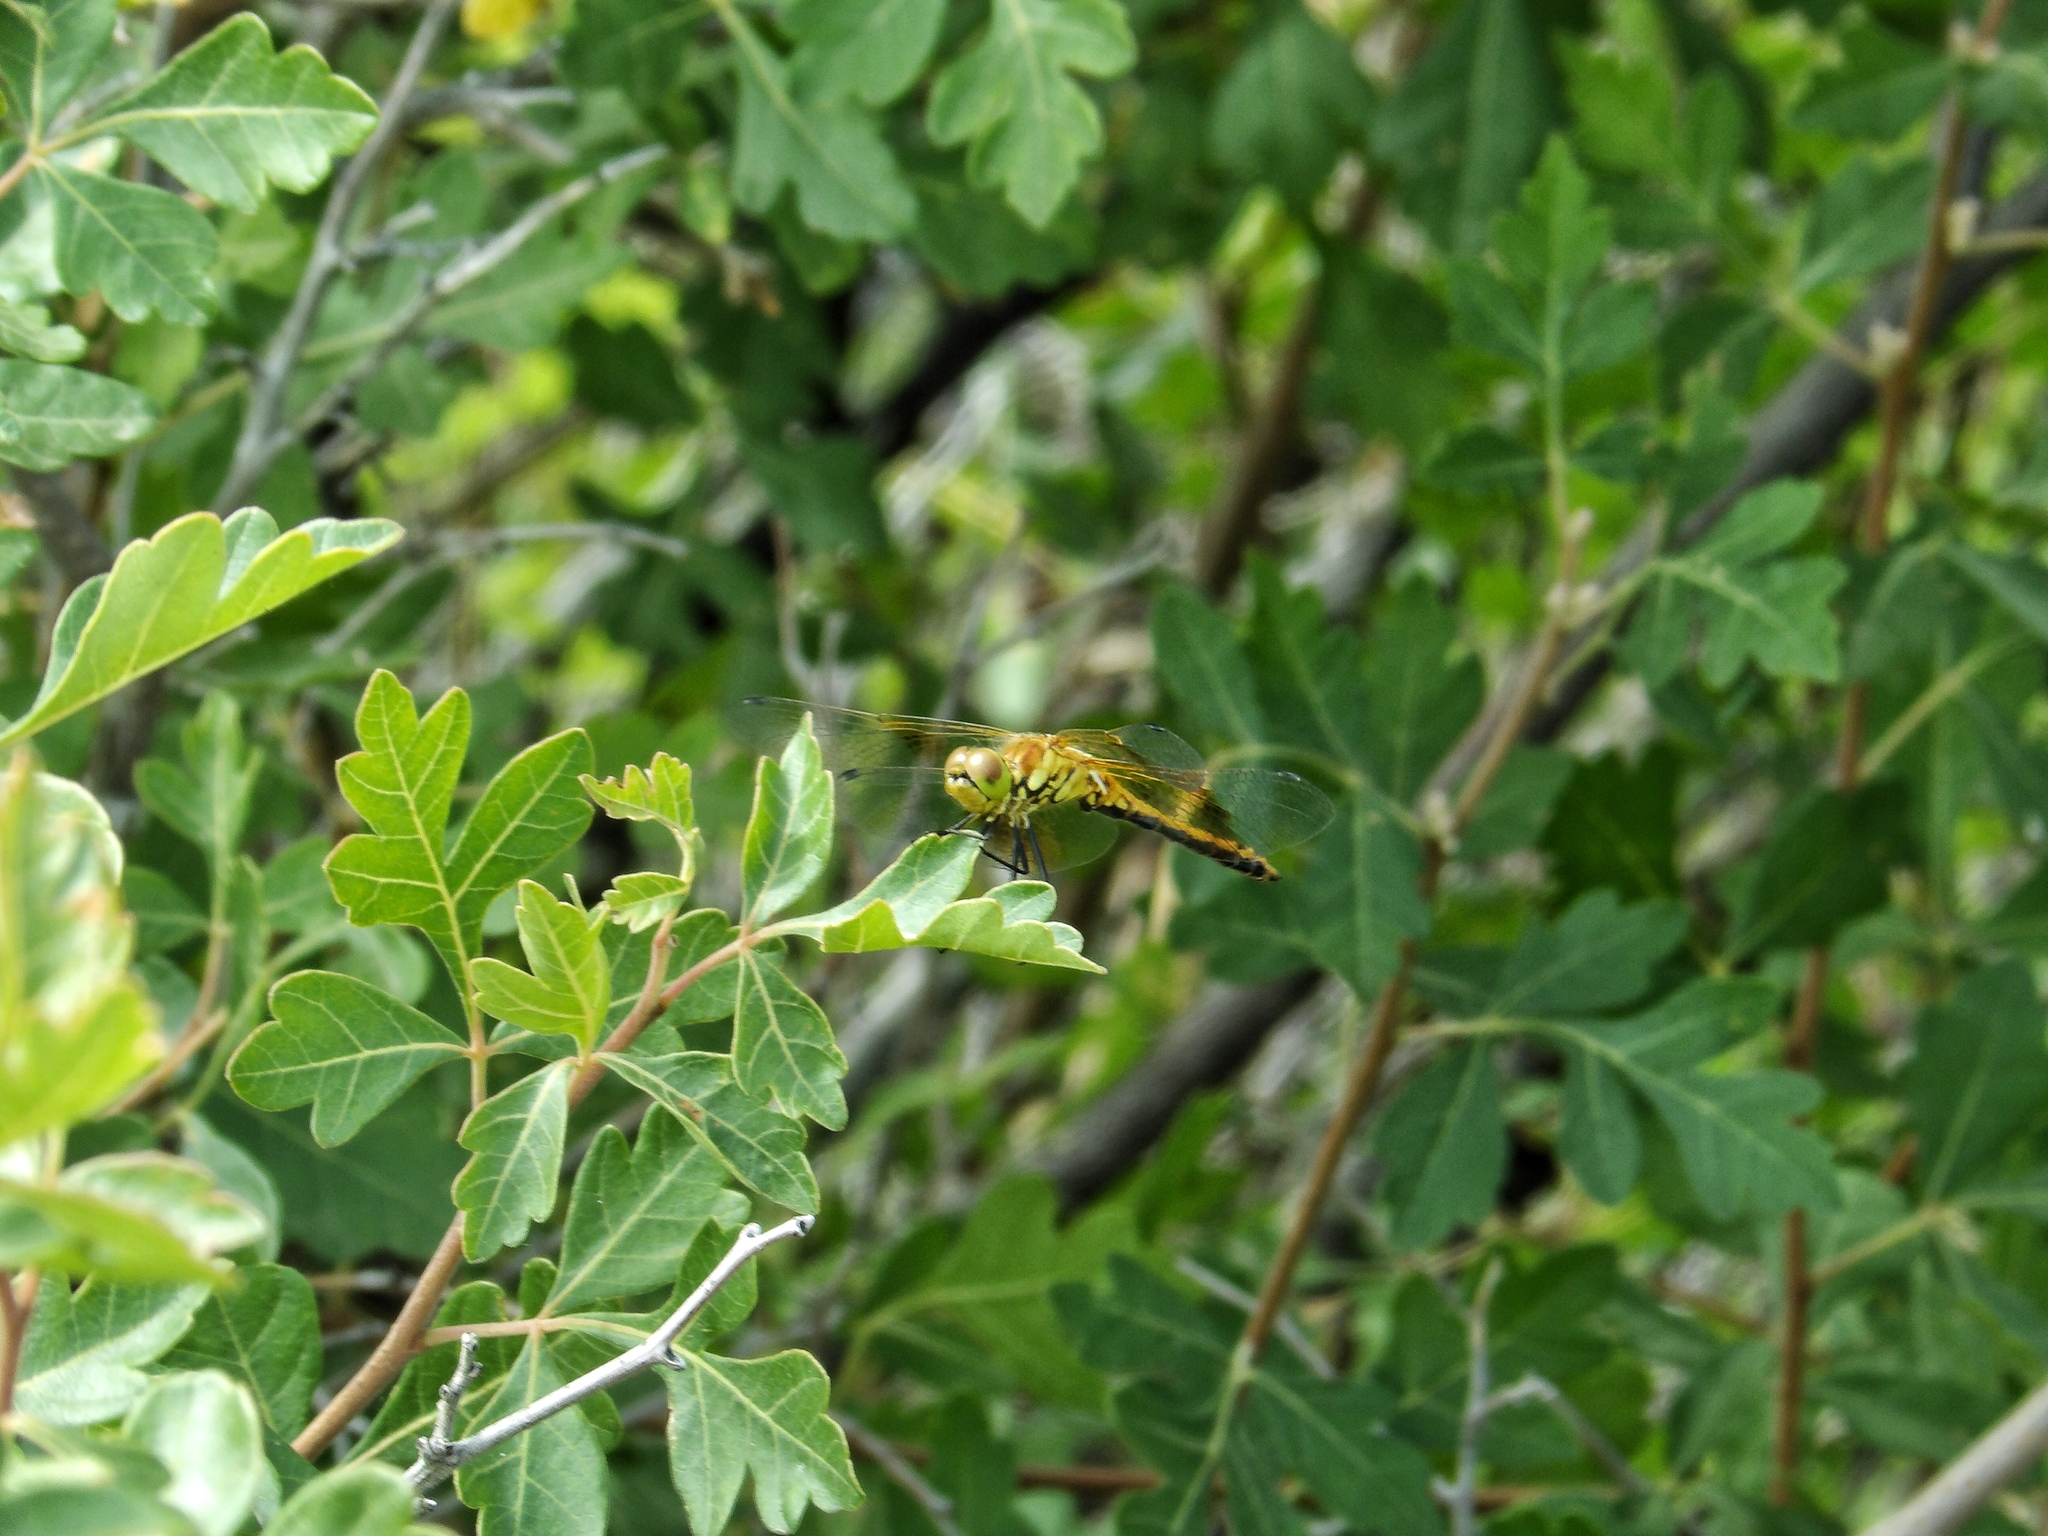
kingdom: Animalia
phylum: Arthropoda
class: Insecta
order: Odonata
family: Libellulidae
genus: Sympetrum
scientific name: Sympetrum semicinctum
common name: Band-winged meadowhawk
